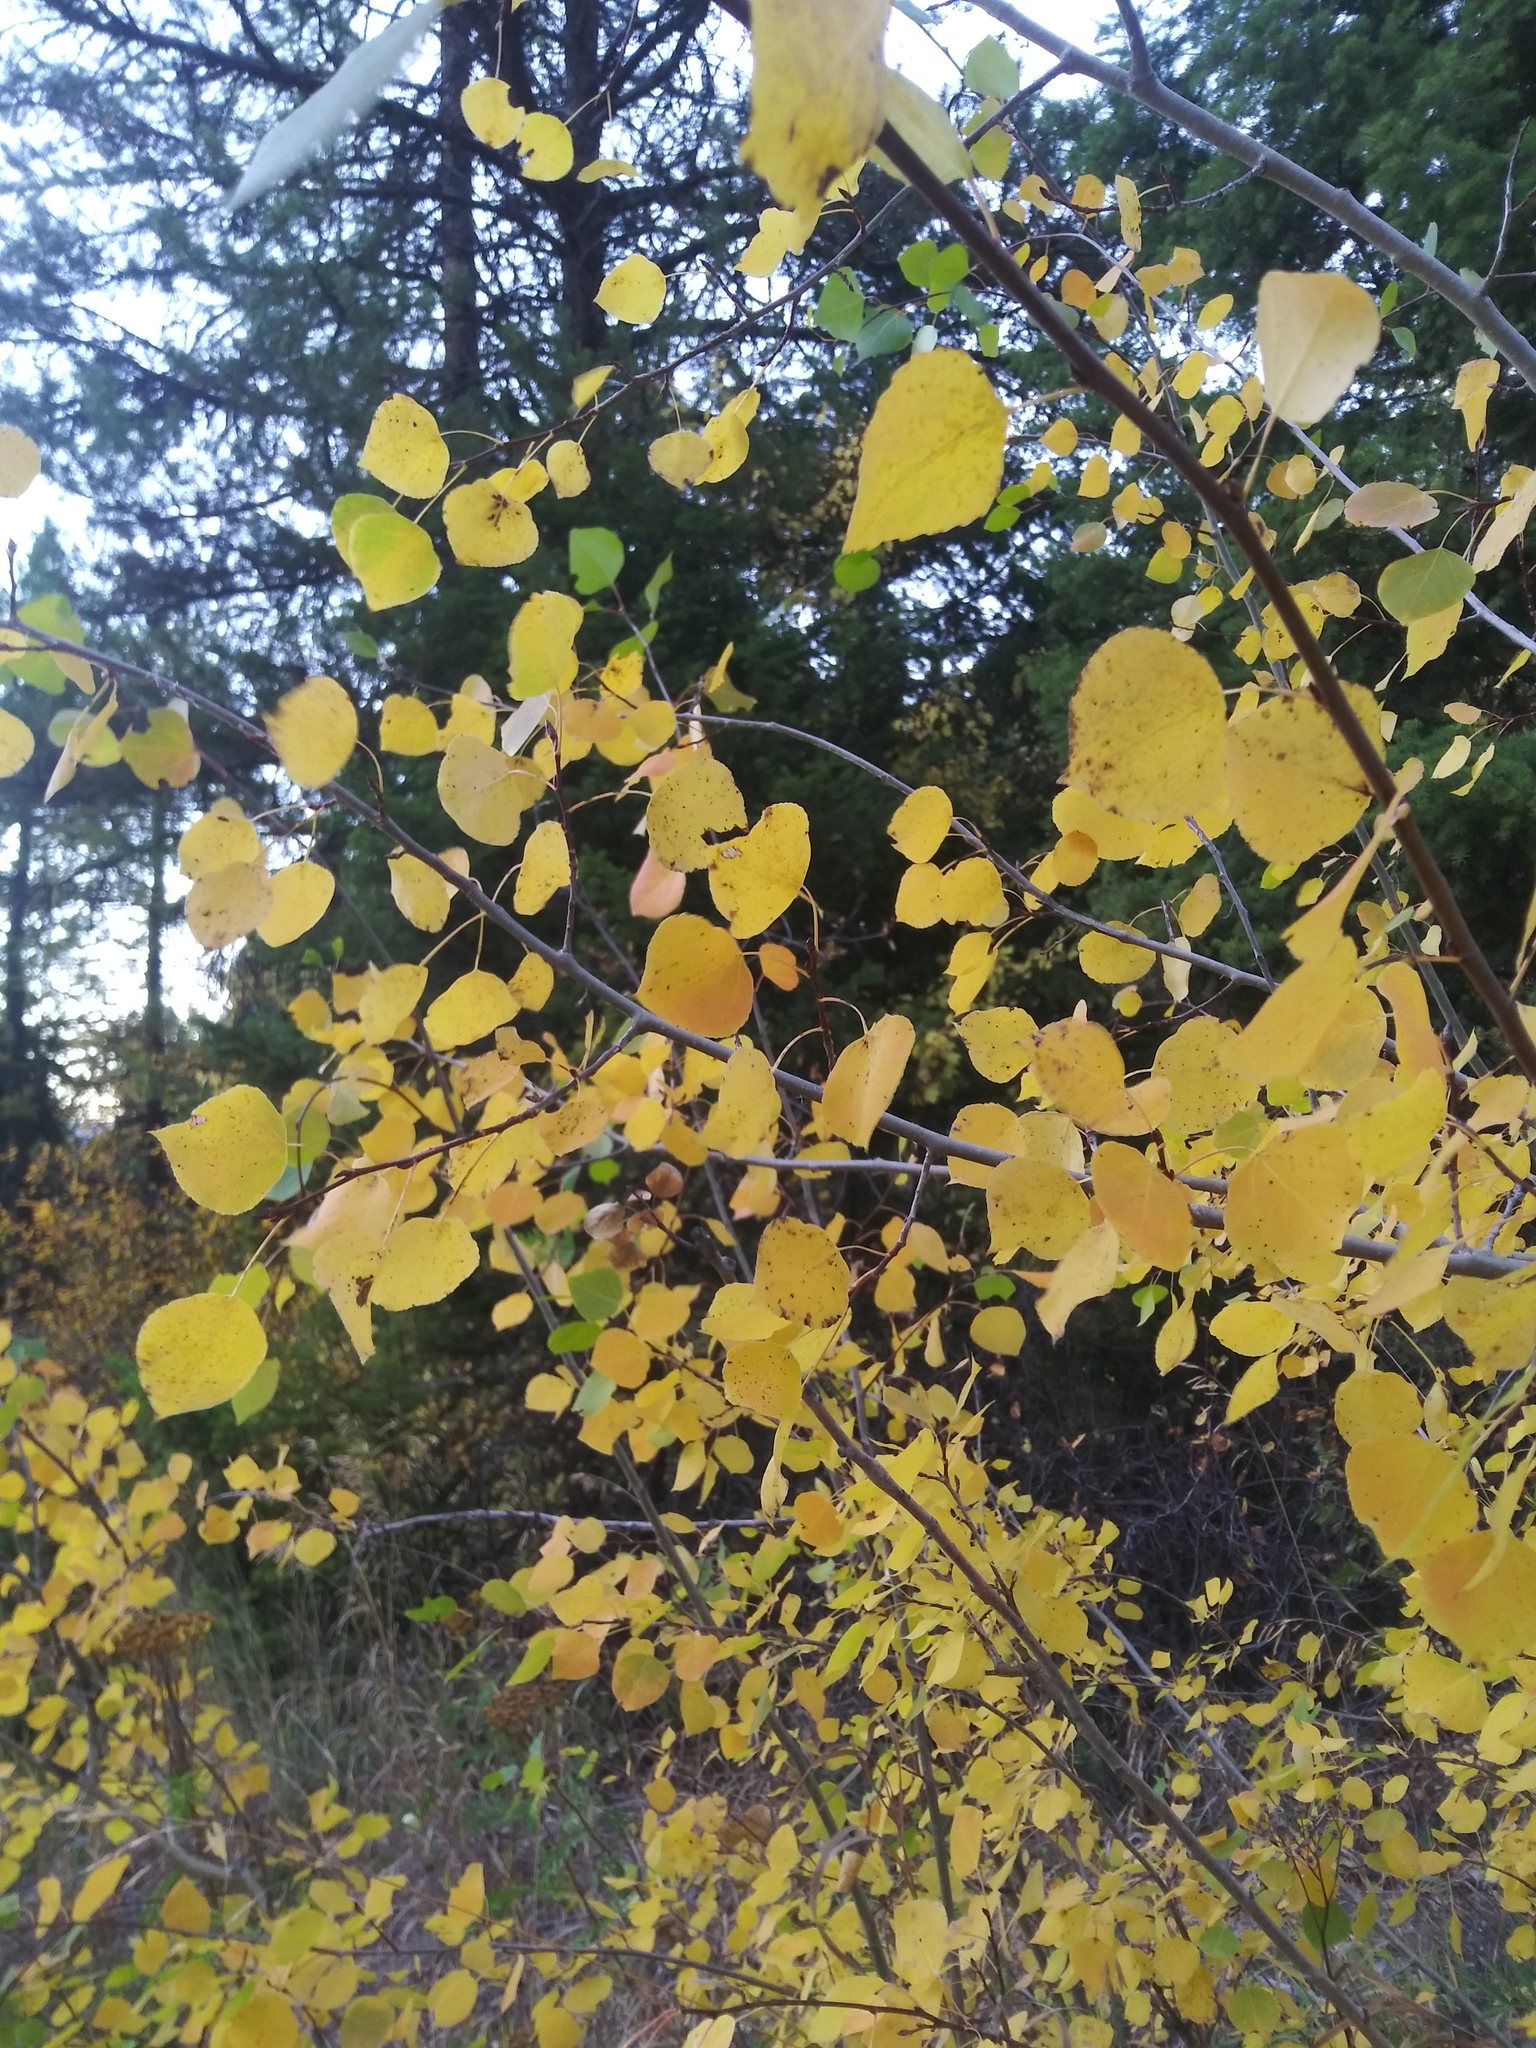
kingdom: Plantae
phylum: Tracheophyta
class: Magnoliopsida
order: Malpighiales
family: Salicaceae
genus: Populus
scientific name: Populus tremuloides
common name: Quaking aspen
